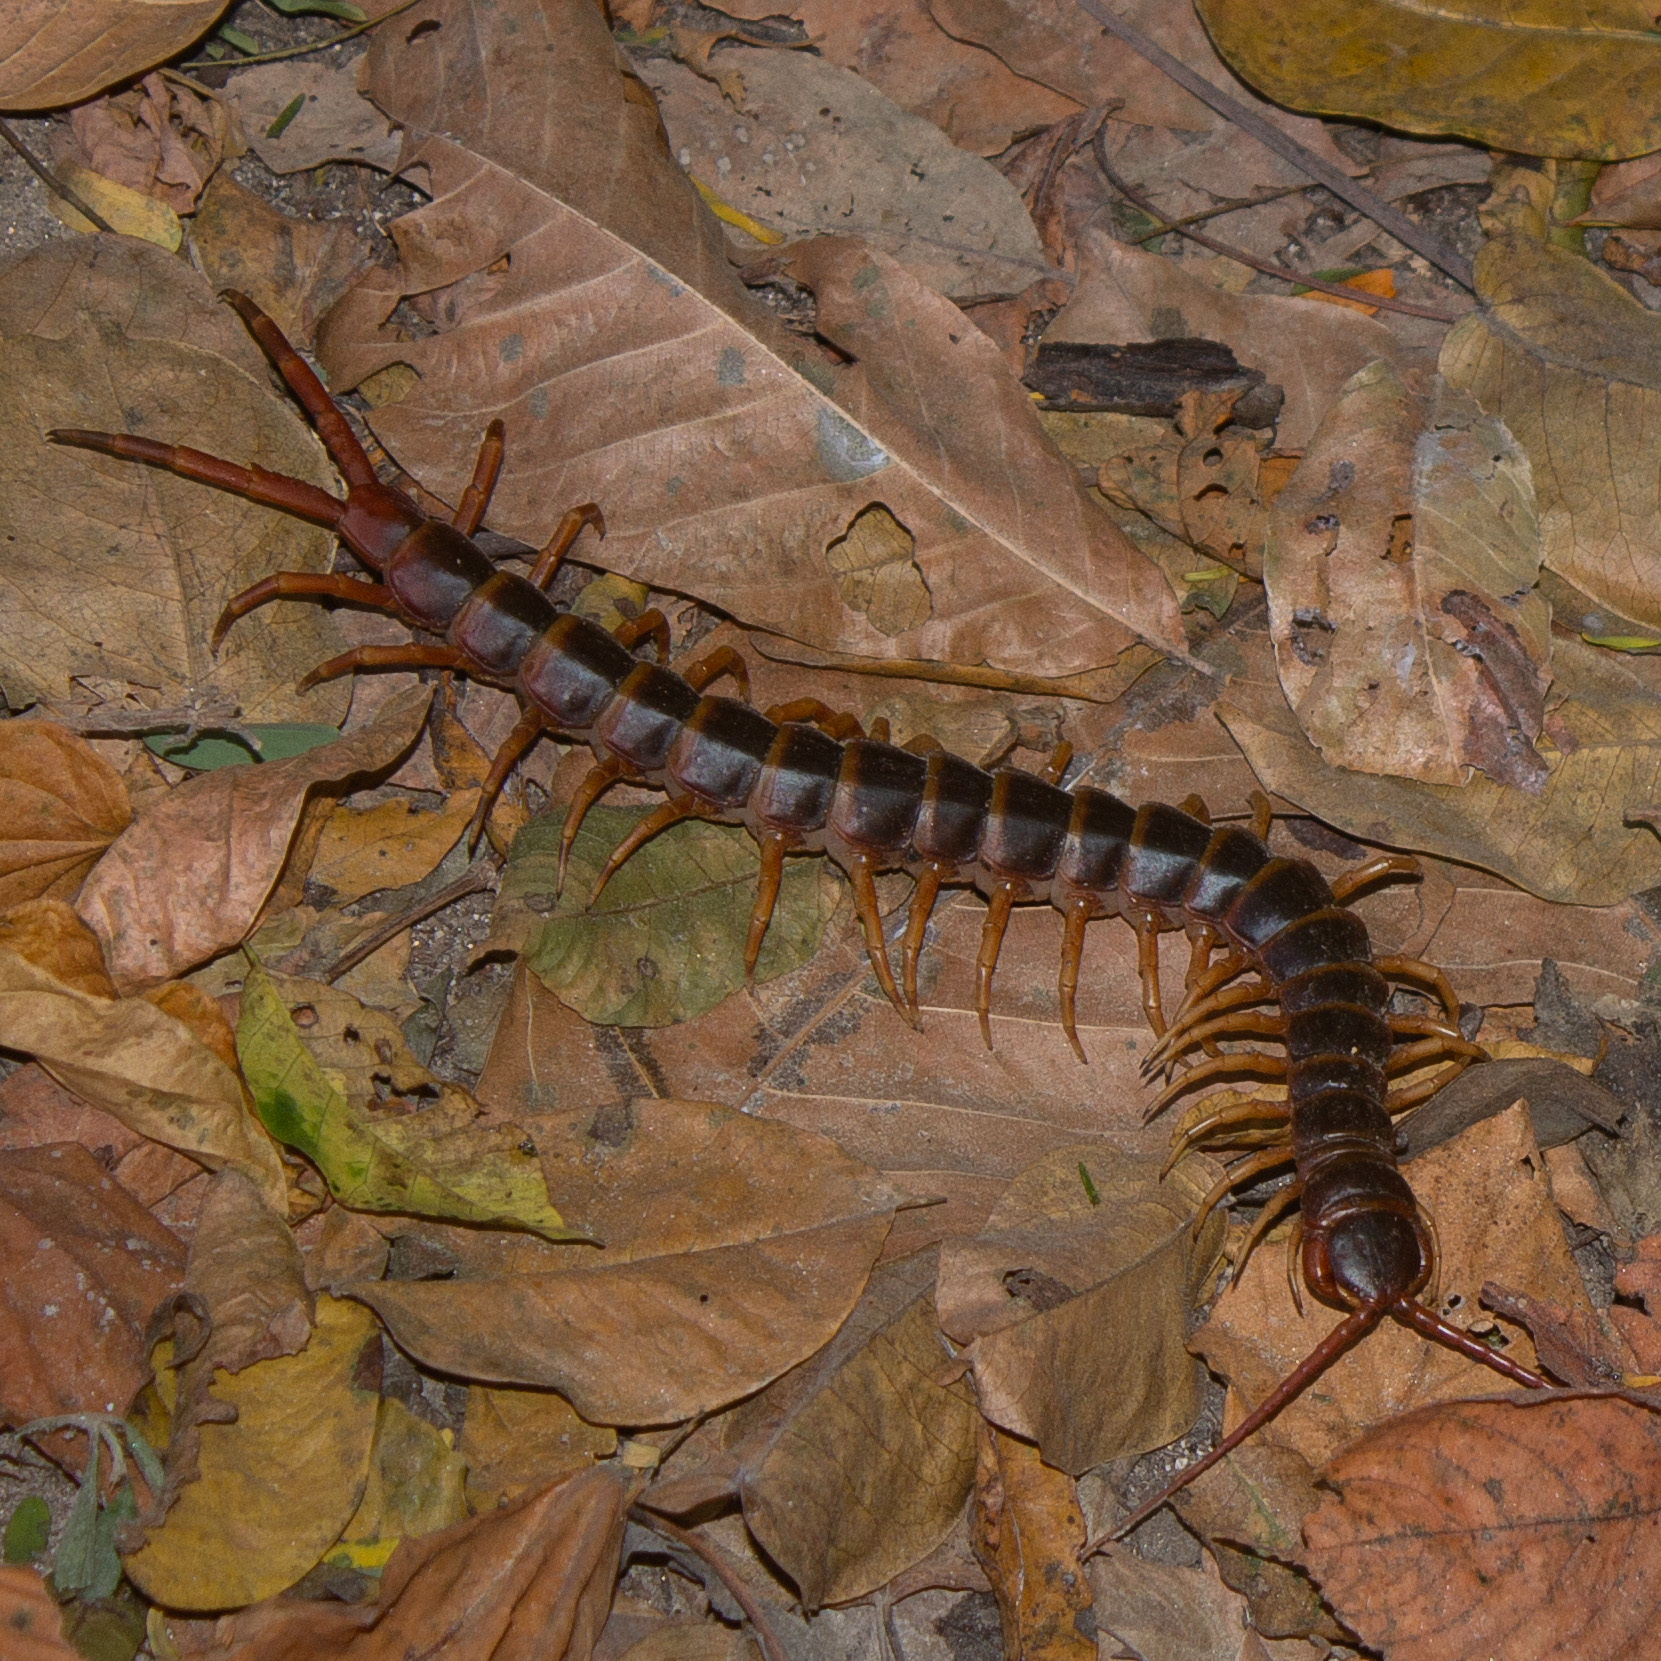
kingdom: Animalia
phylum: Arthropoda
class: Chilopoda
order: Scolopendromorpha
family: Scolopendridae
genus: Scolopendra
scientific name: Scolopendra gigantea
